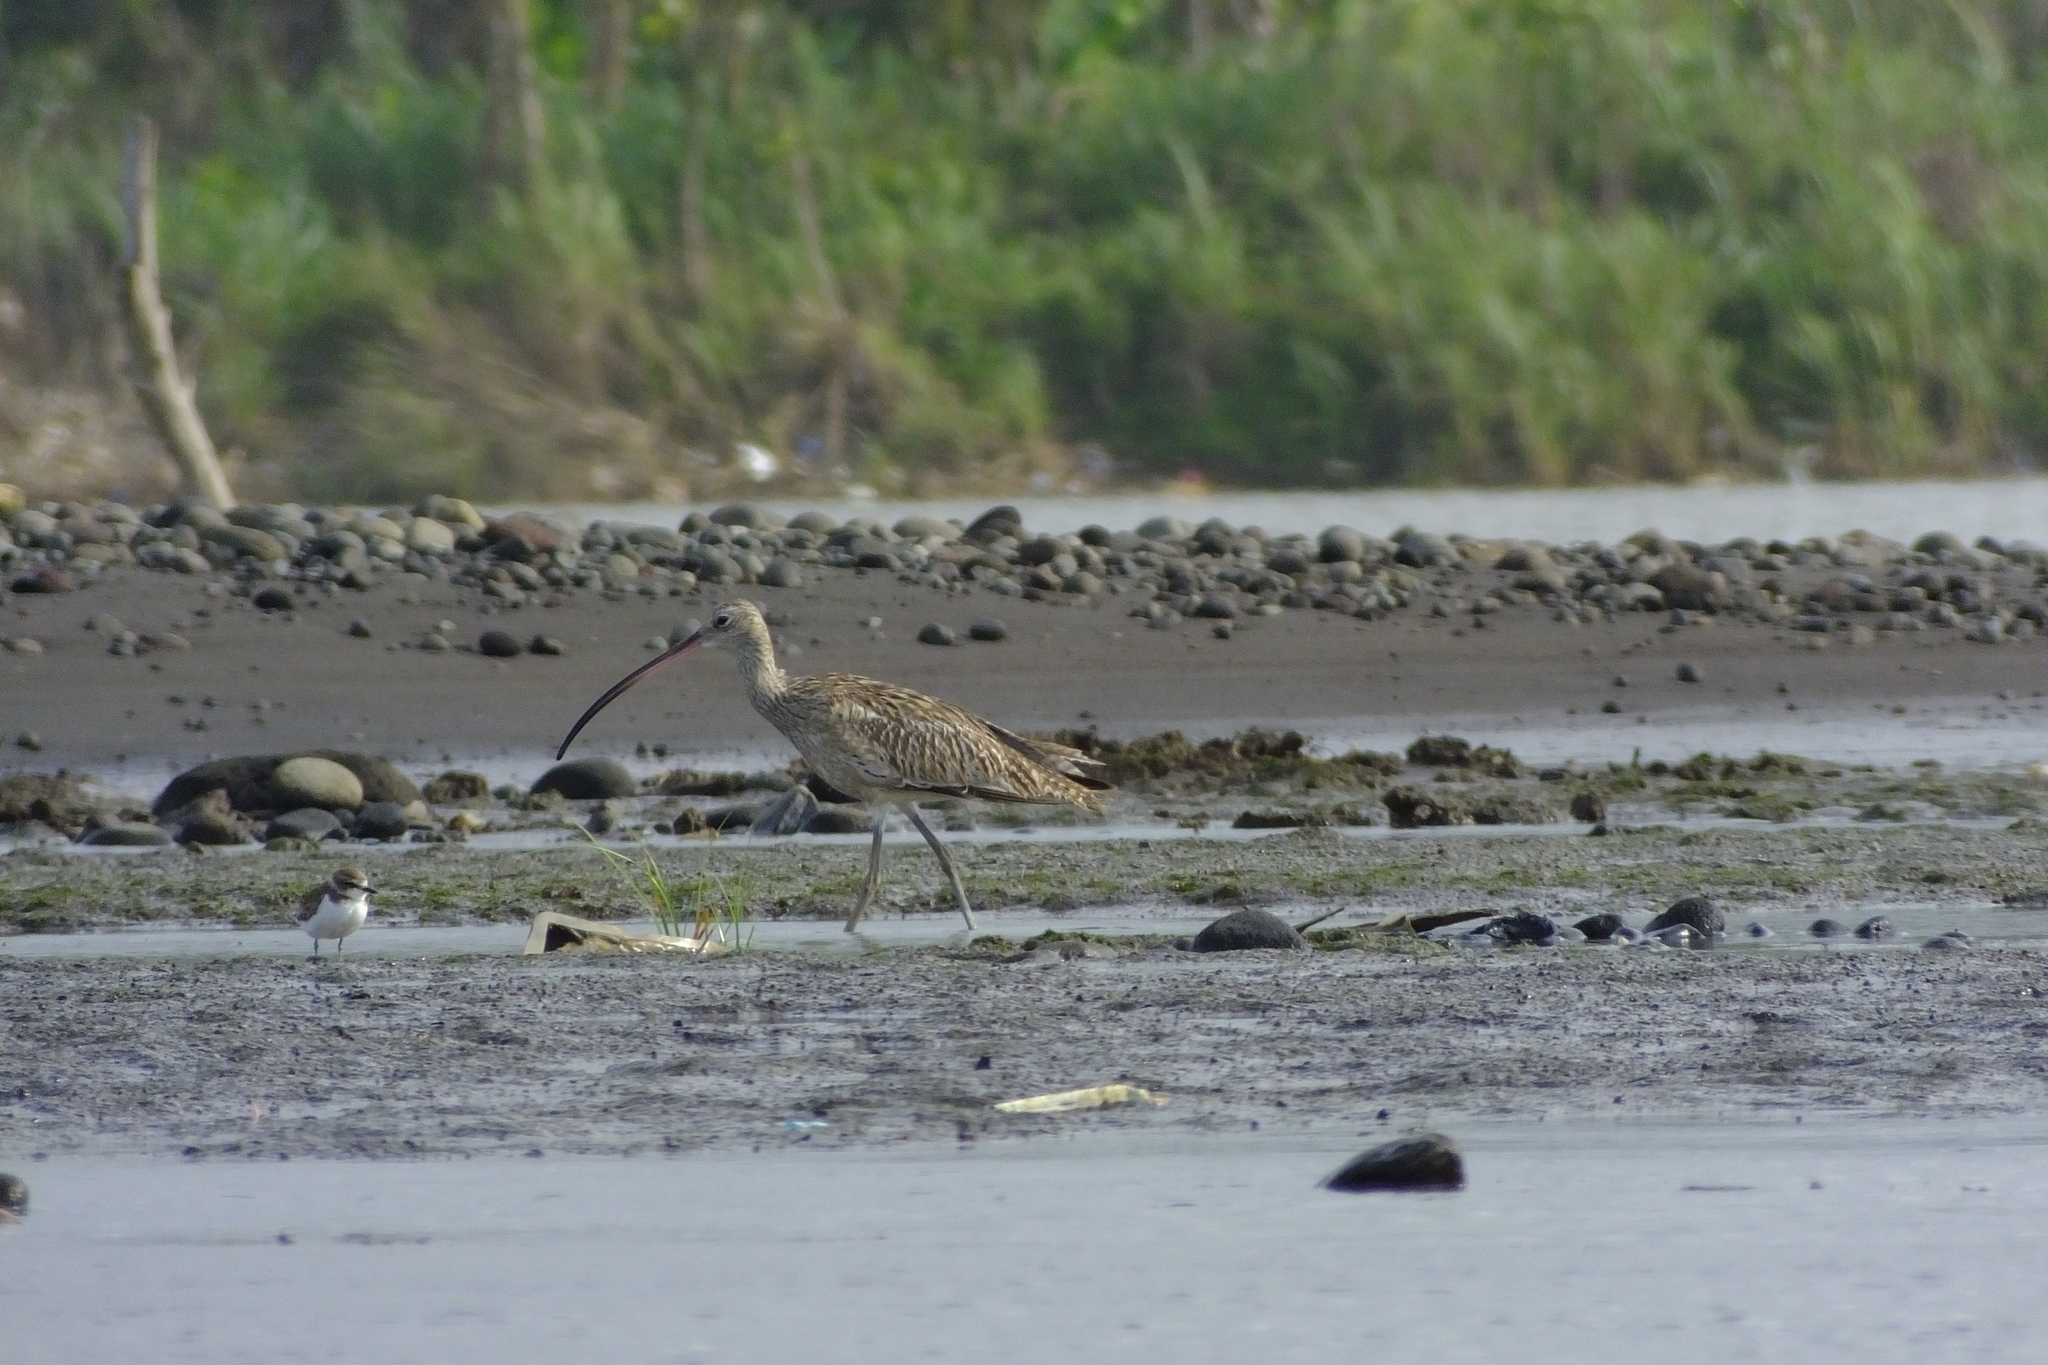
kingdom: Animalia
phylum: Chordata
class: Aves
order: Charadriiformes
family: Scolopacidae
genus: Numenius
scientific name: Numenius arquata
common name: Eurasian curlew
